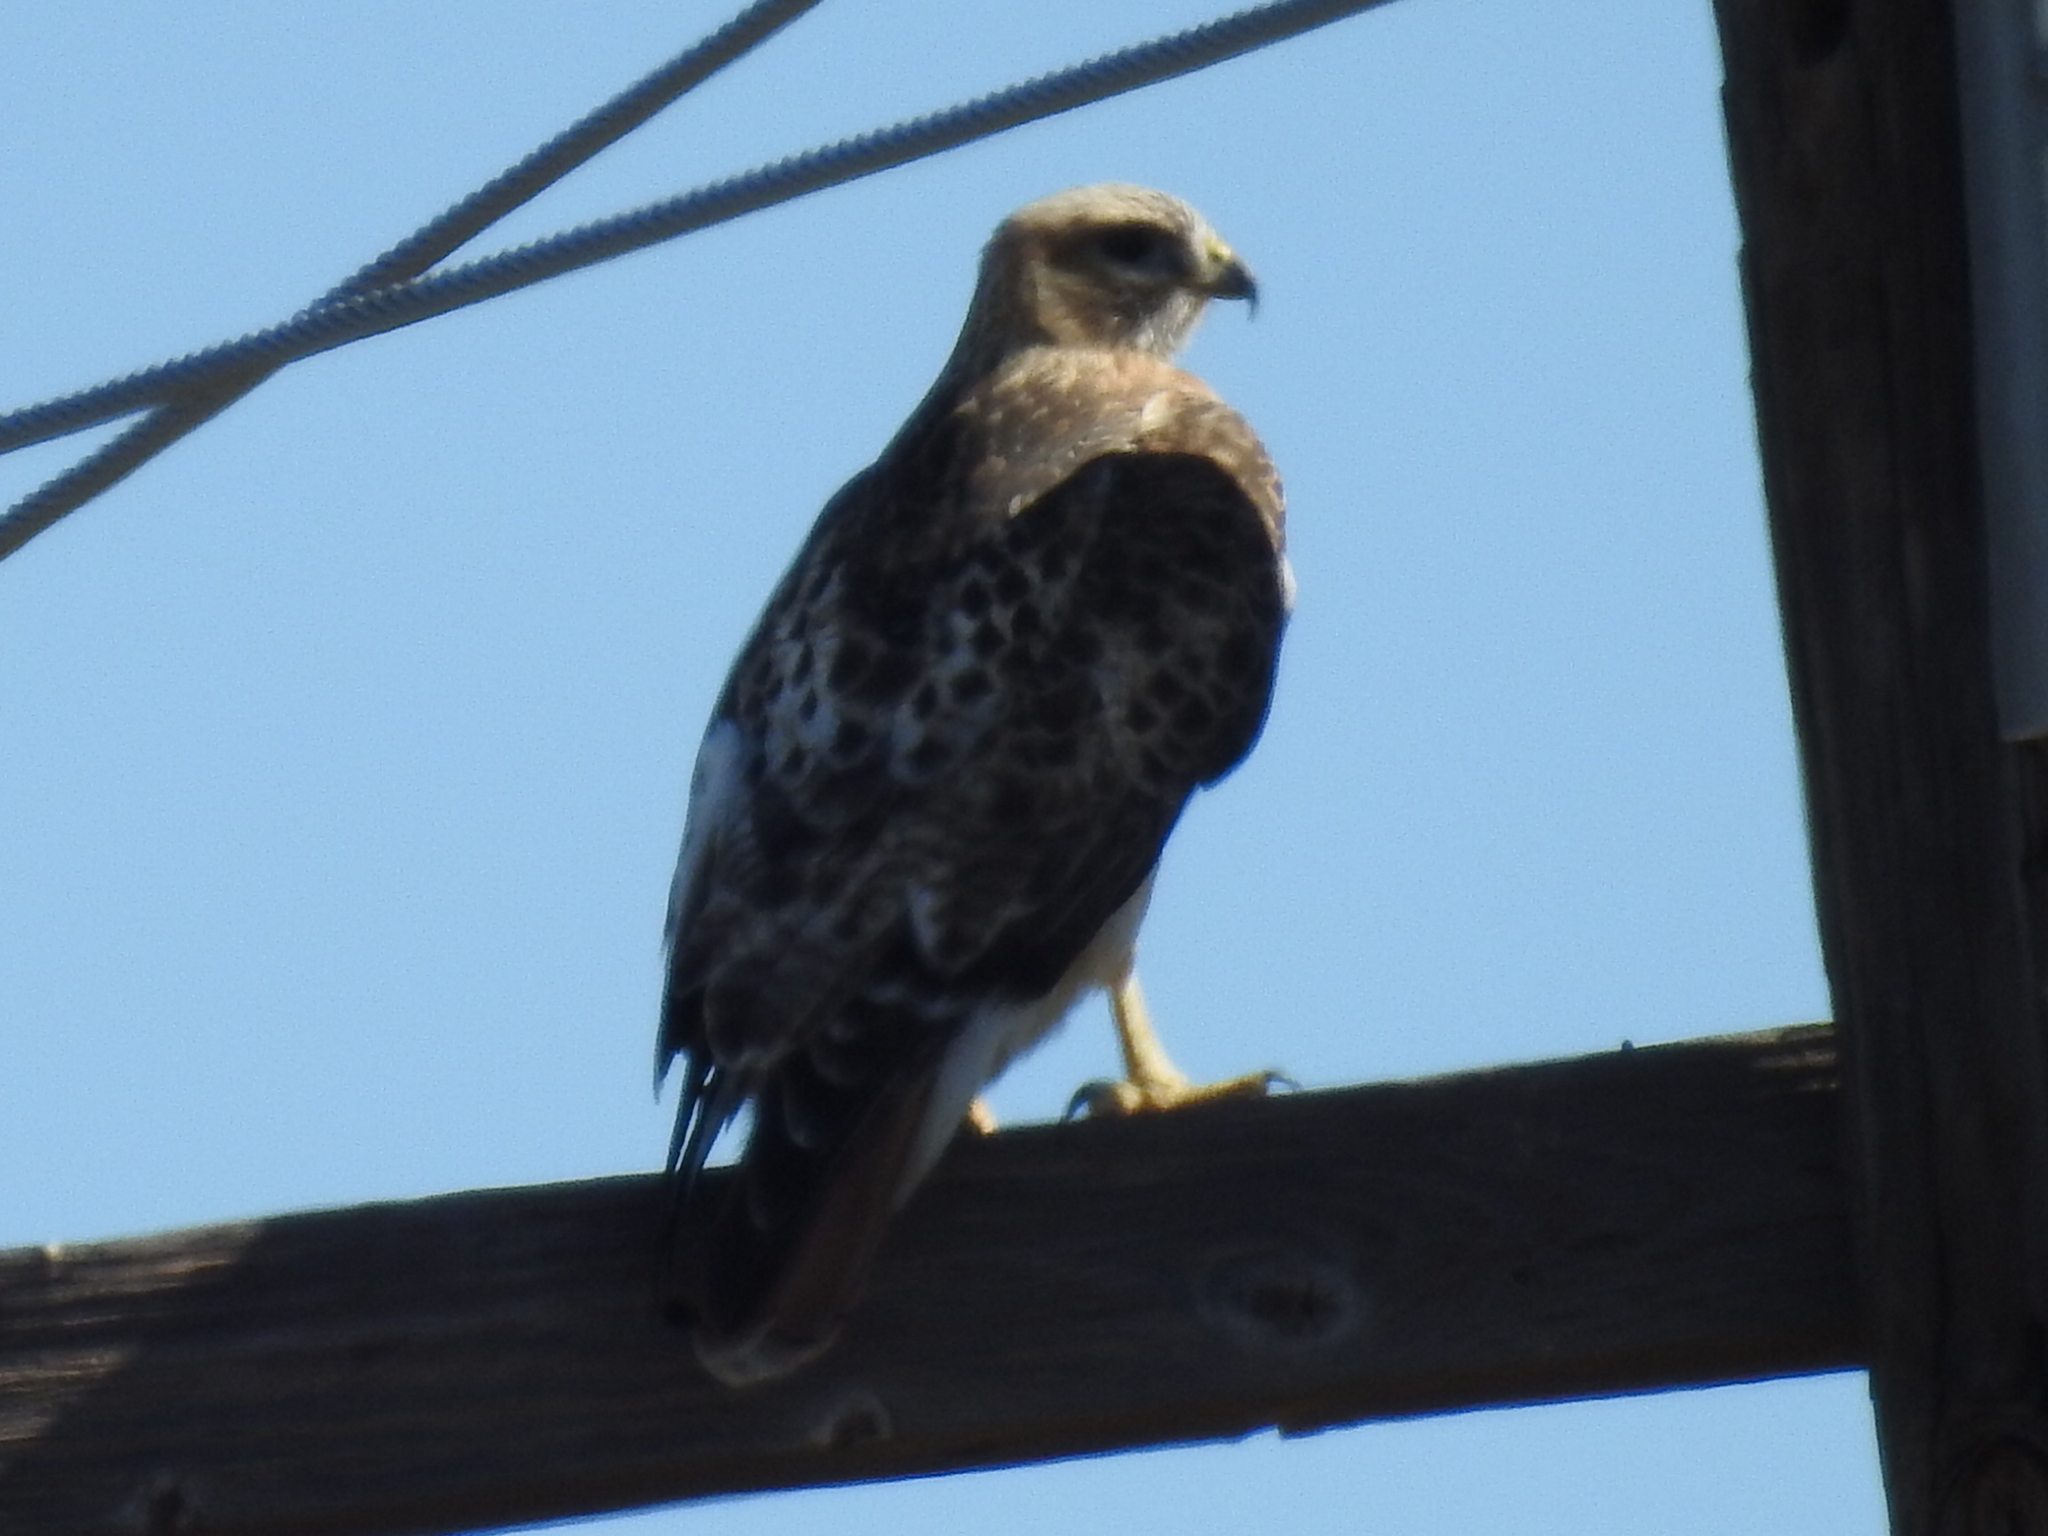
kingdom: Animalia
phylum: Chordata
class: Aves
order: Accipitriformes
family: Accipitridae
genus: Buteo
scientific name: Buteo jamaicensis
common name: Red-tailed hawk
